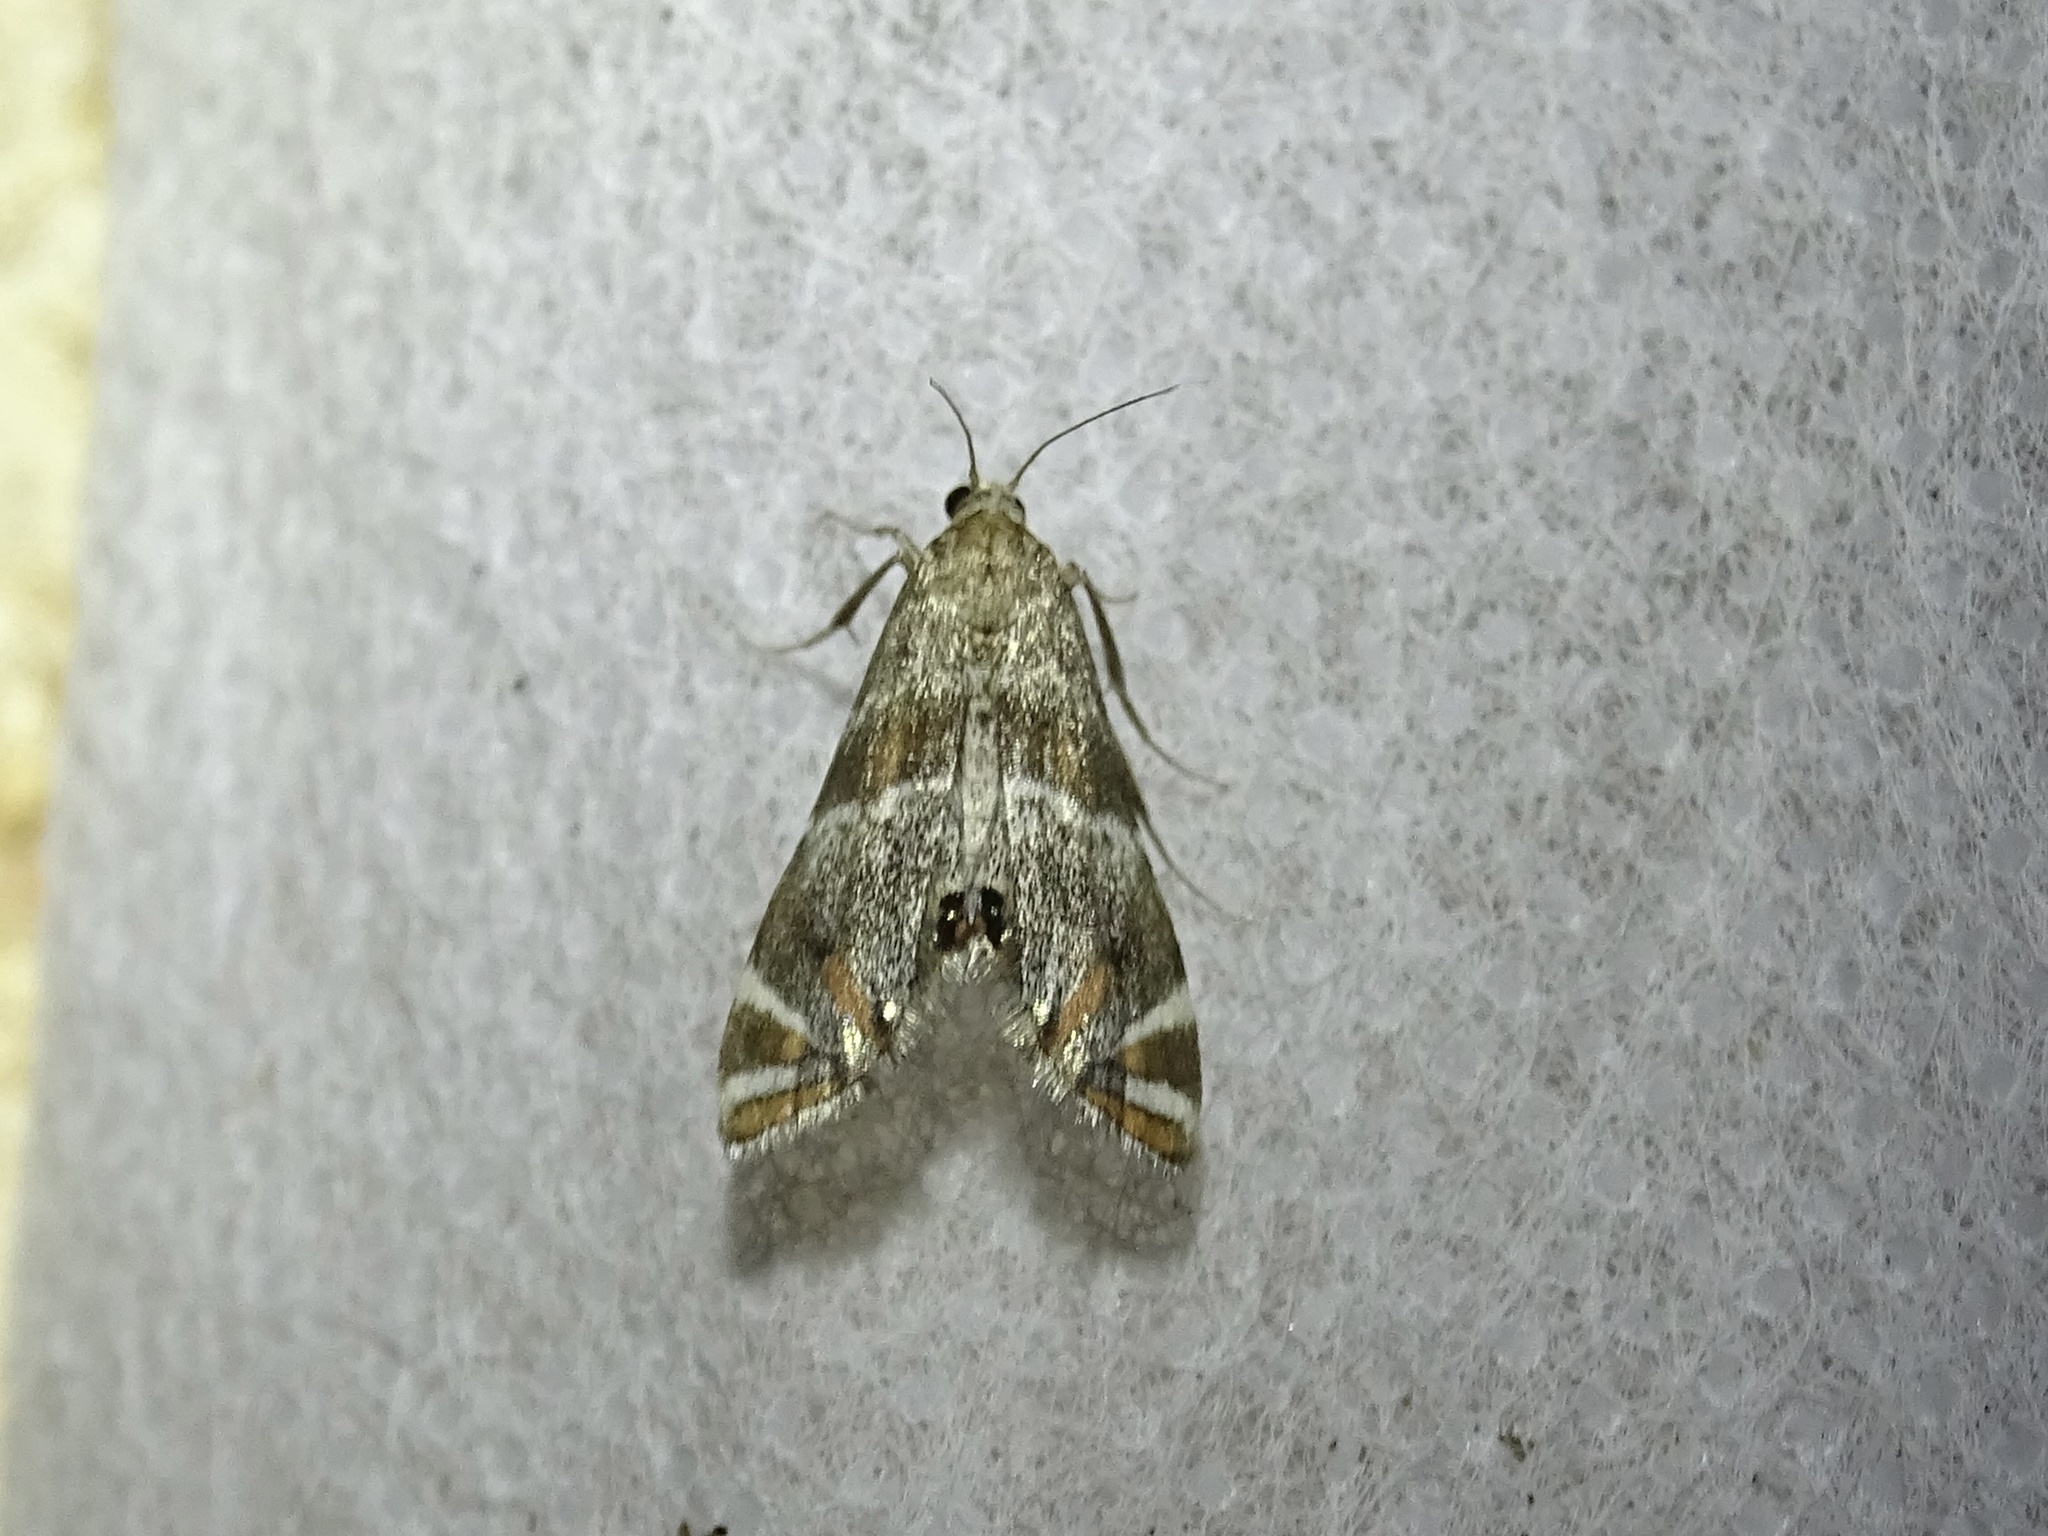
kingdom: Animalia
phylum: Arthropoda
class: Insecta
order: Lepidoptera
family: Crambidae
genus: Petrophila
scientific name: Petrophila jaliscalis
